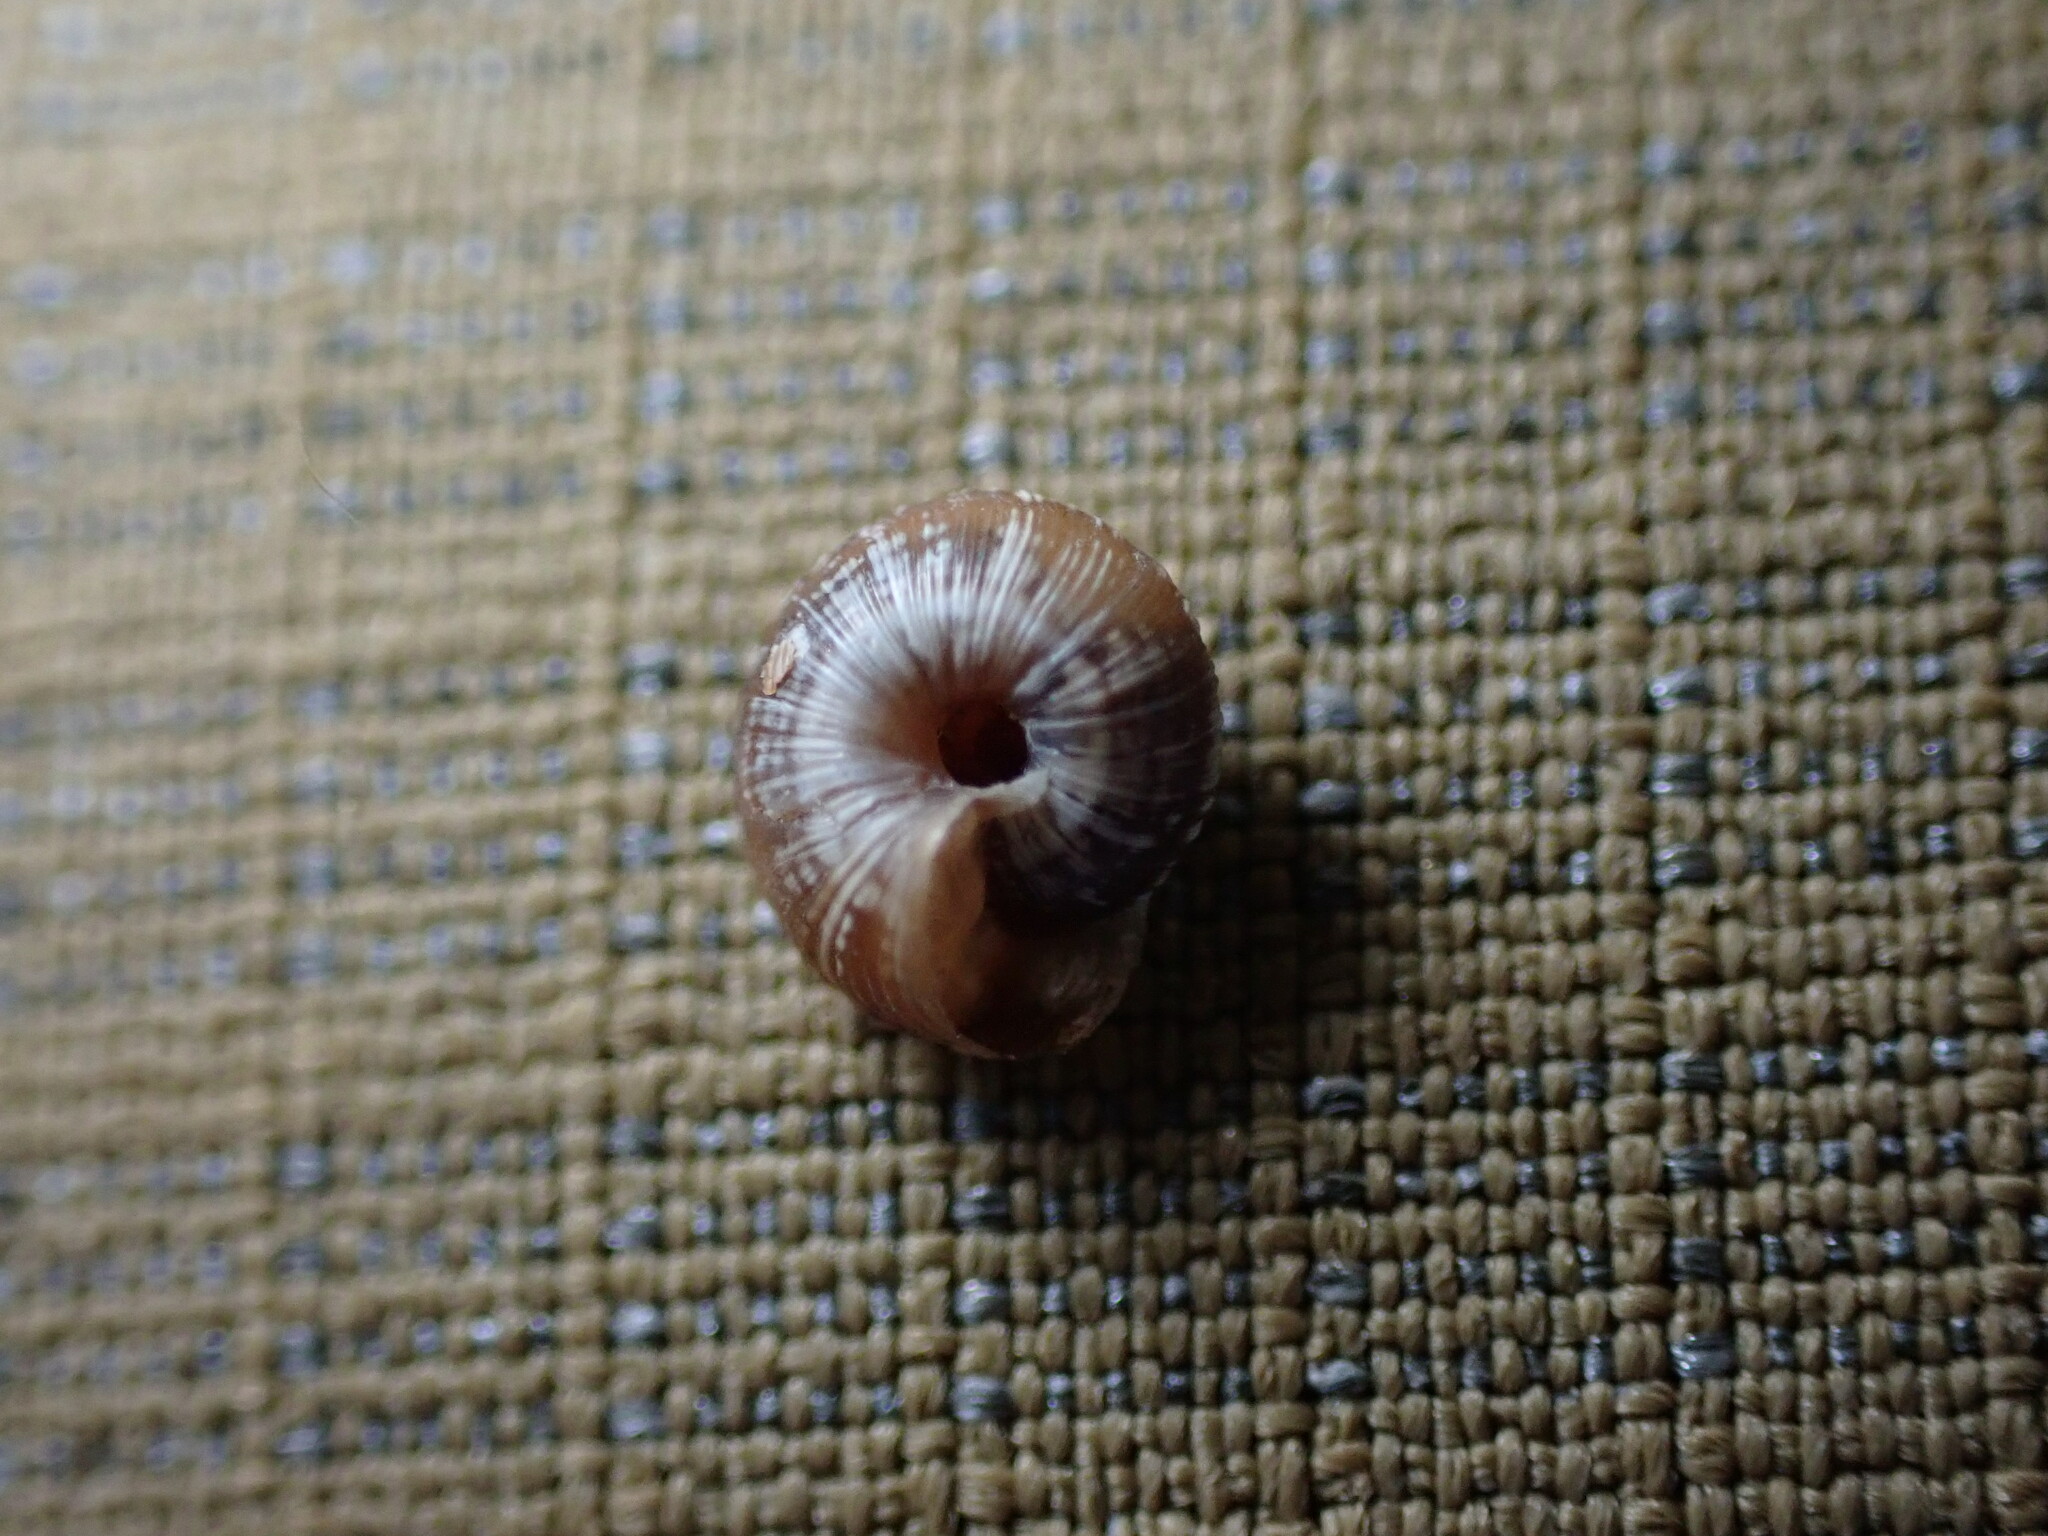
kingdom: Animalia
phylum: Mollusca
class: Gastropoda
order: Stylommatophora
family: Geomitridae
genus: Candidula
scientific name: Candidula rugosiuscula
